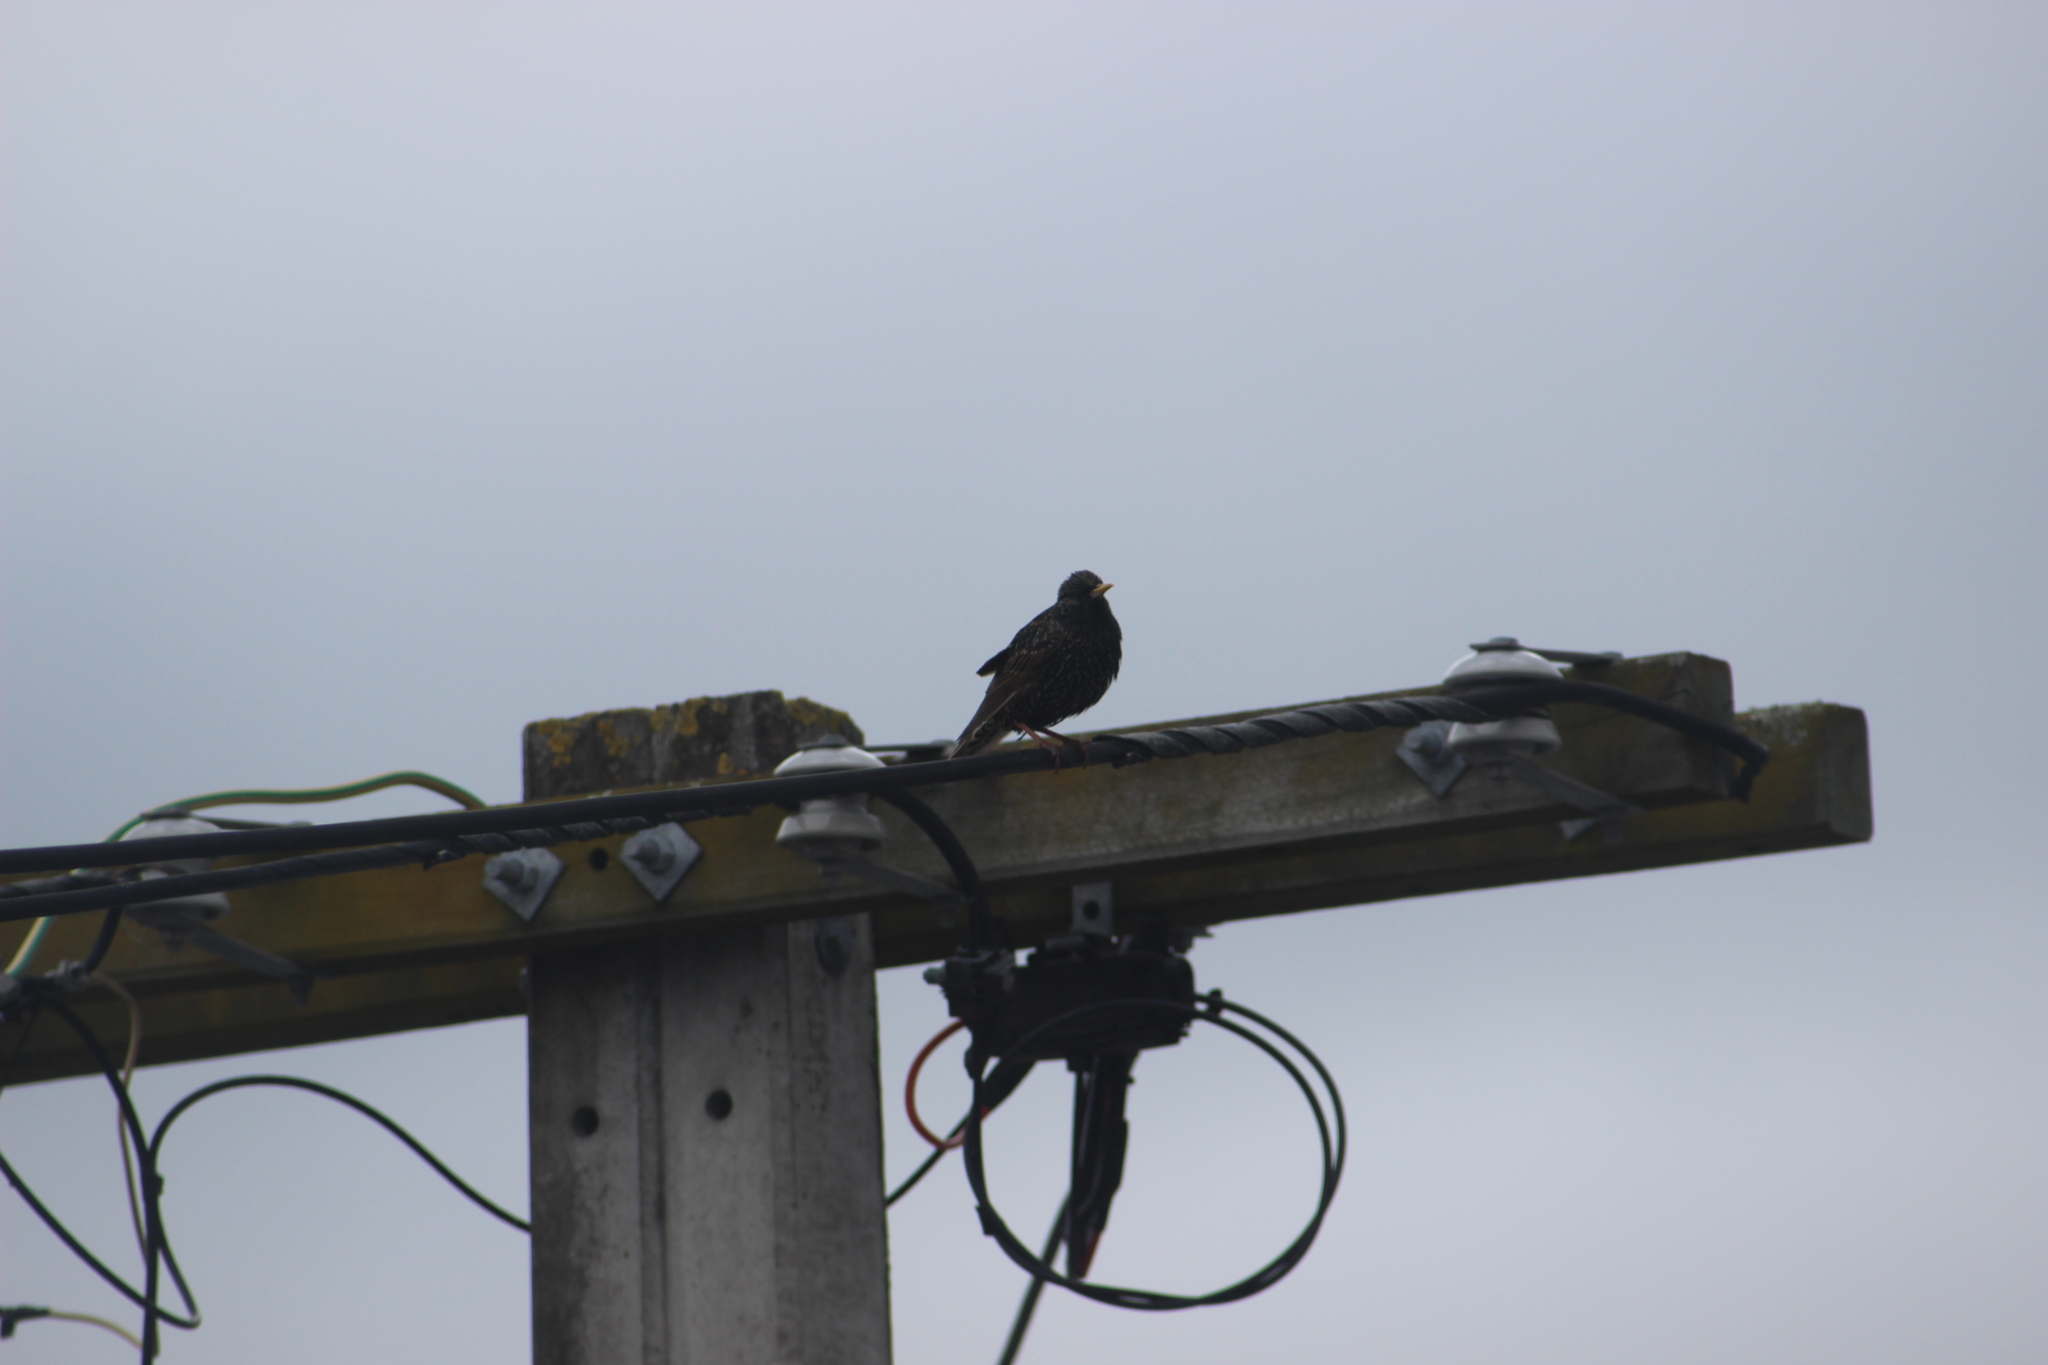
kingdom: Animalia
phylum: Chordata
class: Aves
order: Passeriformes
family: Sturnidae
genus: Sturnus
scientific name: Sturnus vulgaris
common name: Common starling
